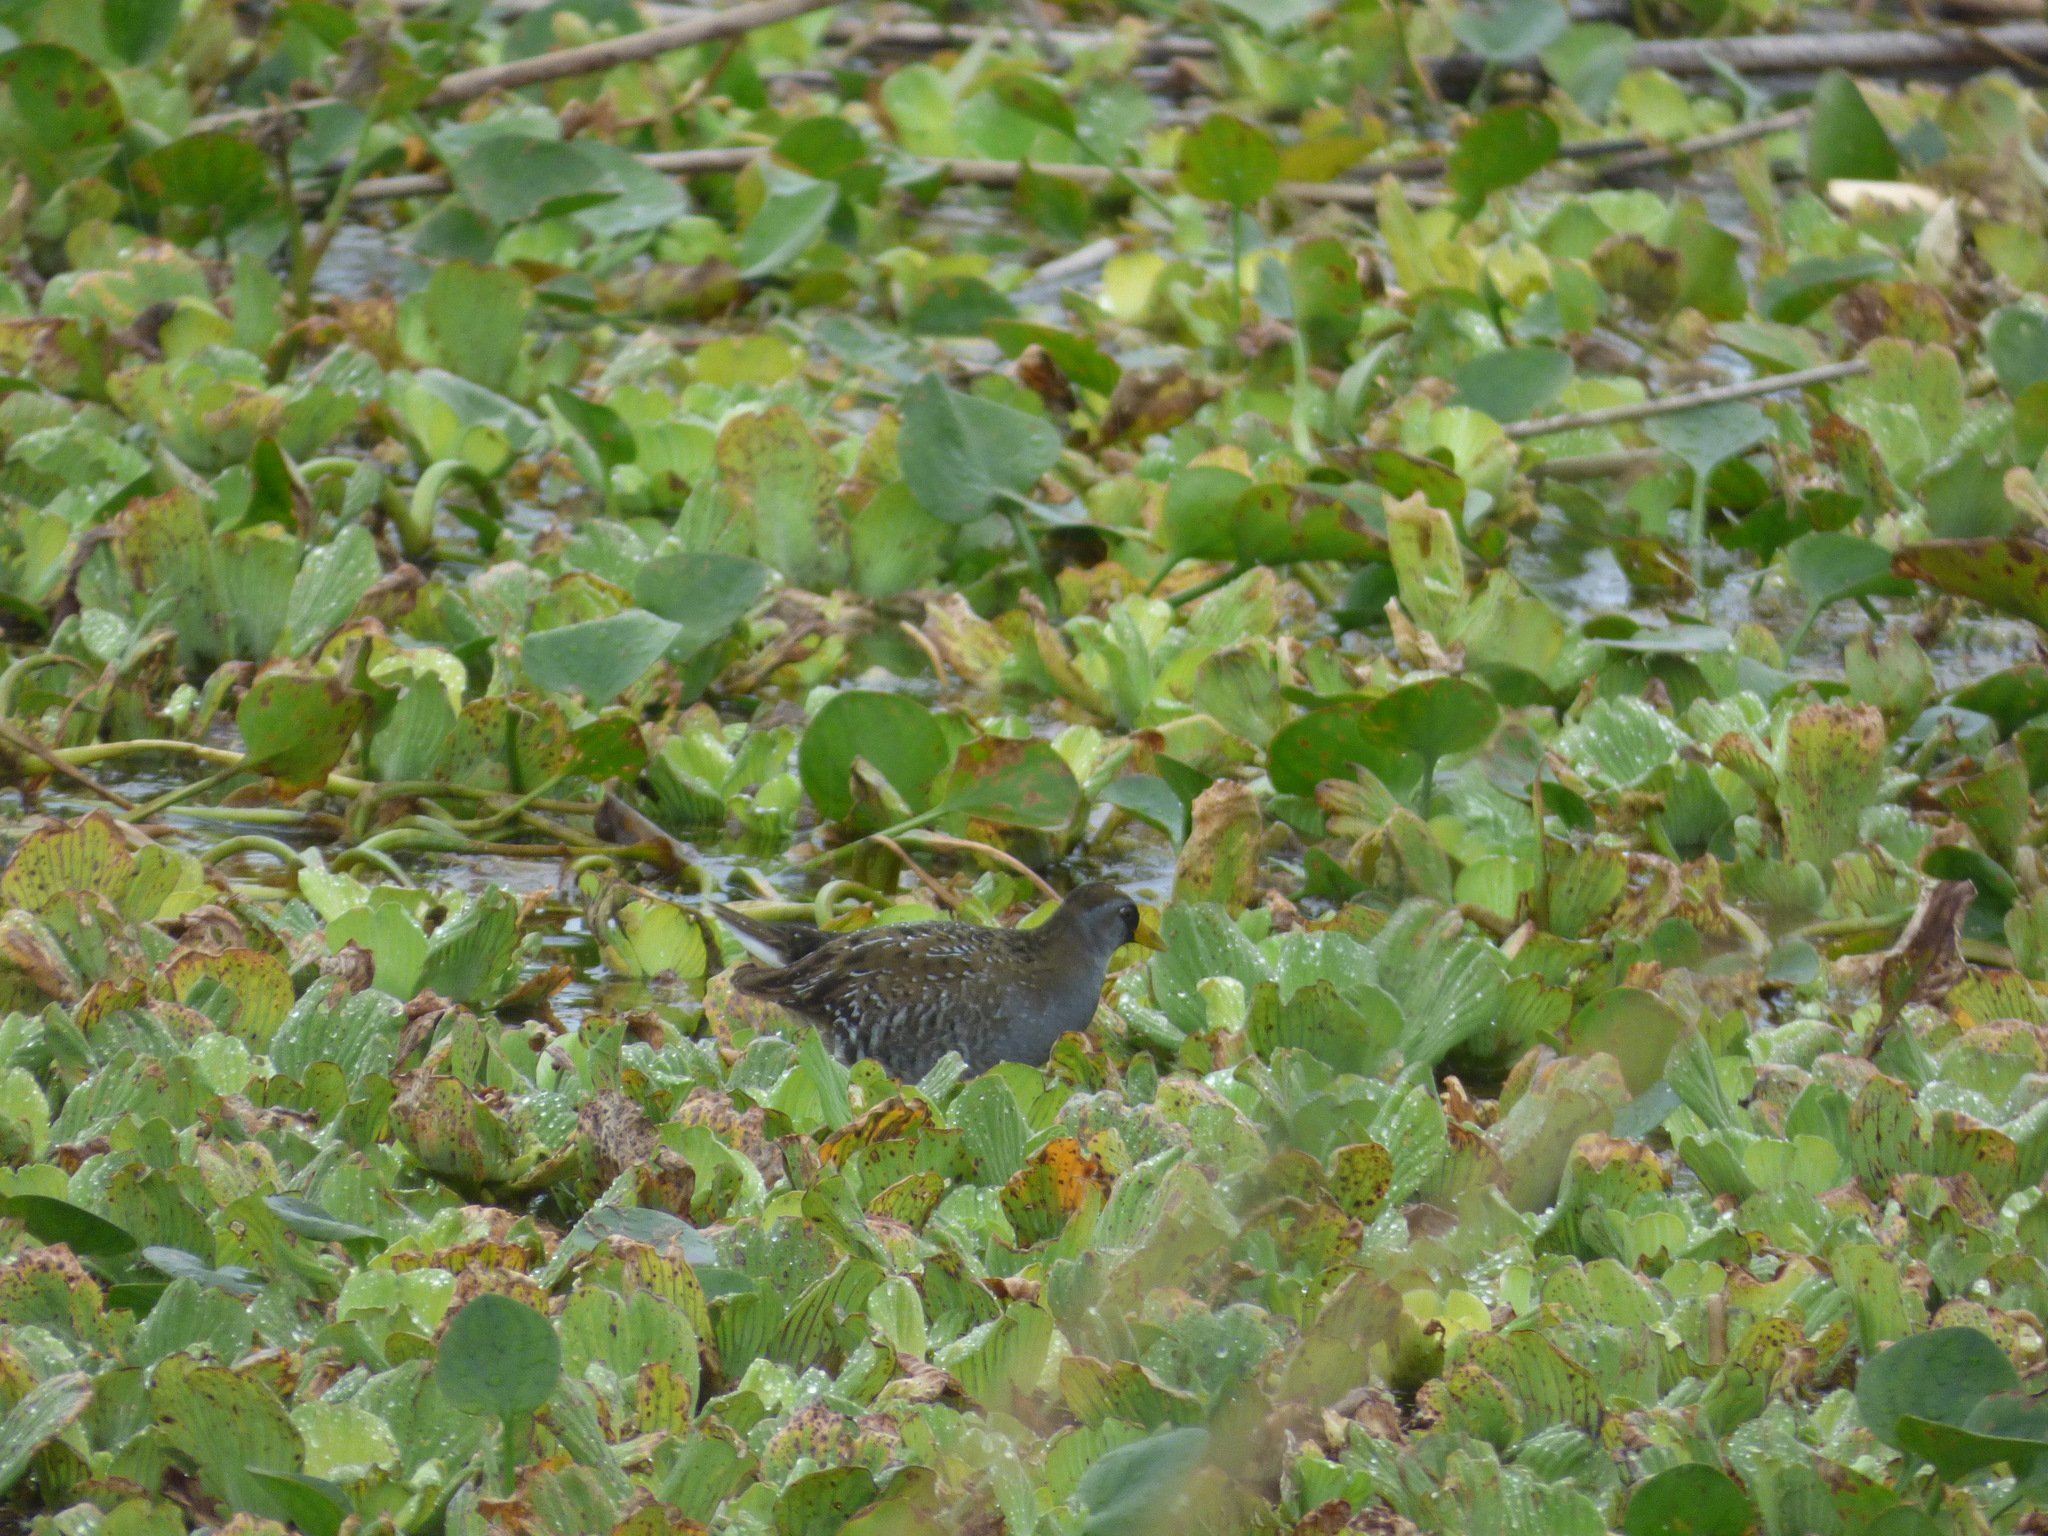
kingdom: Animalia
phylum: Chordata
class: Aves
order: Gruiformes
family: Rallidae
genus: Porzana
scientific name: Porzana carolina
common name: Sora
